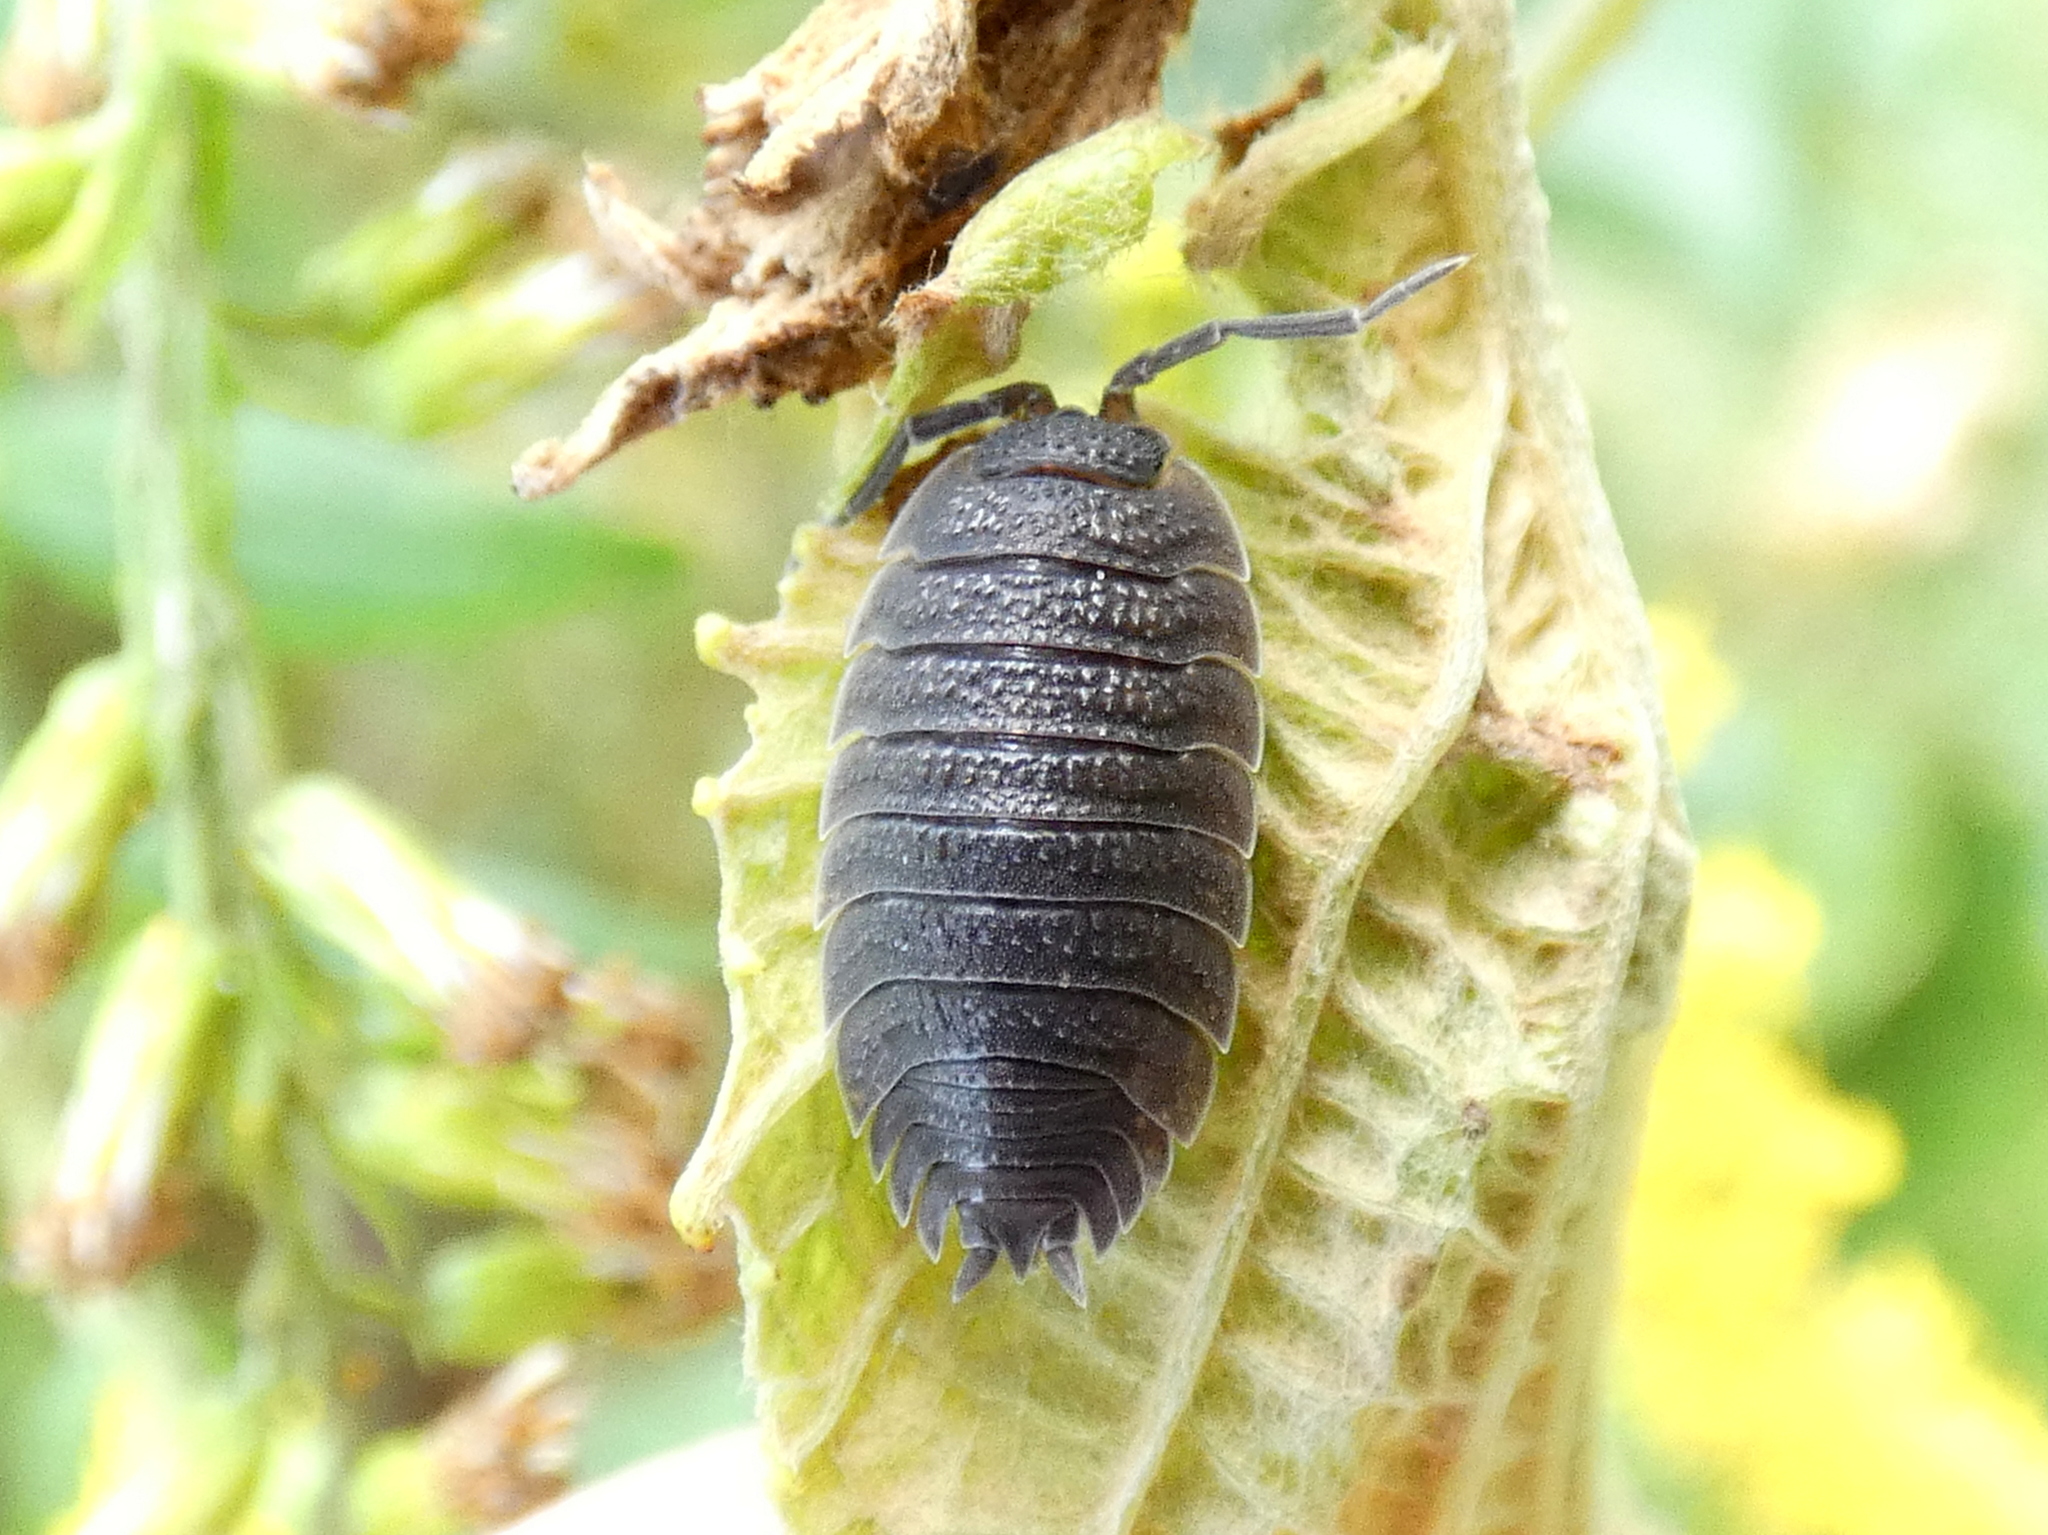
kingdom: Animalia
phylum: Arthropoda
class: Malacostraca
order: Isopoda
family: Porcellionidae
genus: Porcellio
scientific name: Porcellio scaber
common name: Common rough woodlouse
